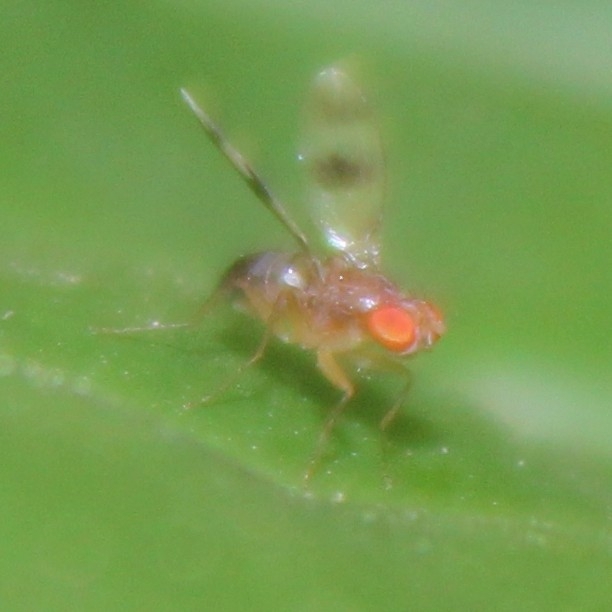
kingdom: Animalia
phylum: Arthropoda
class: Insecta
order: Diptera
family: Drosophilidae
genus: Chymomyza
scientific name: Chymomyza amoena
